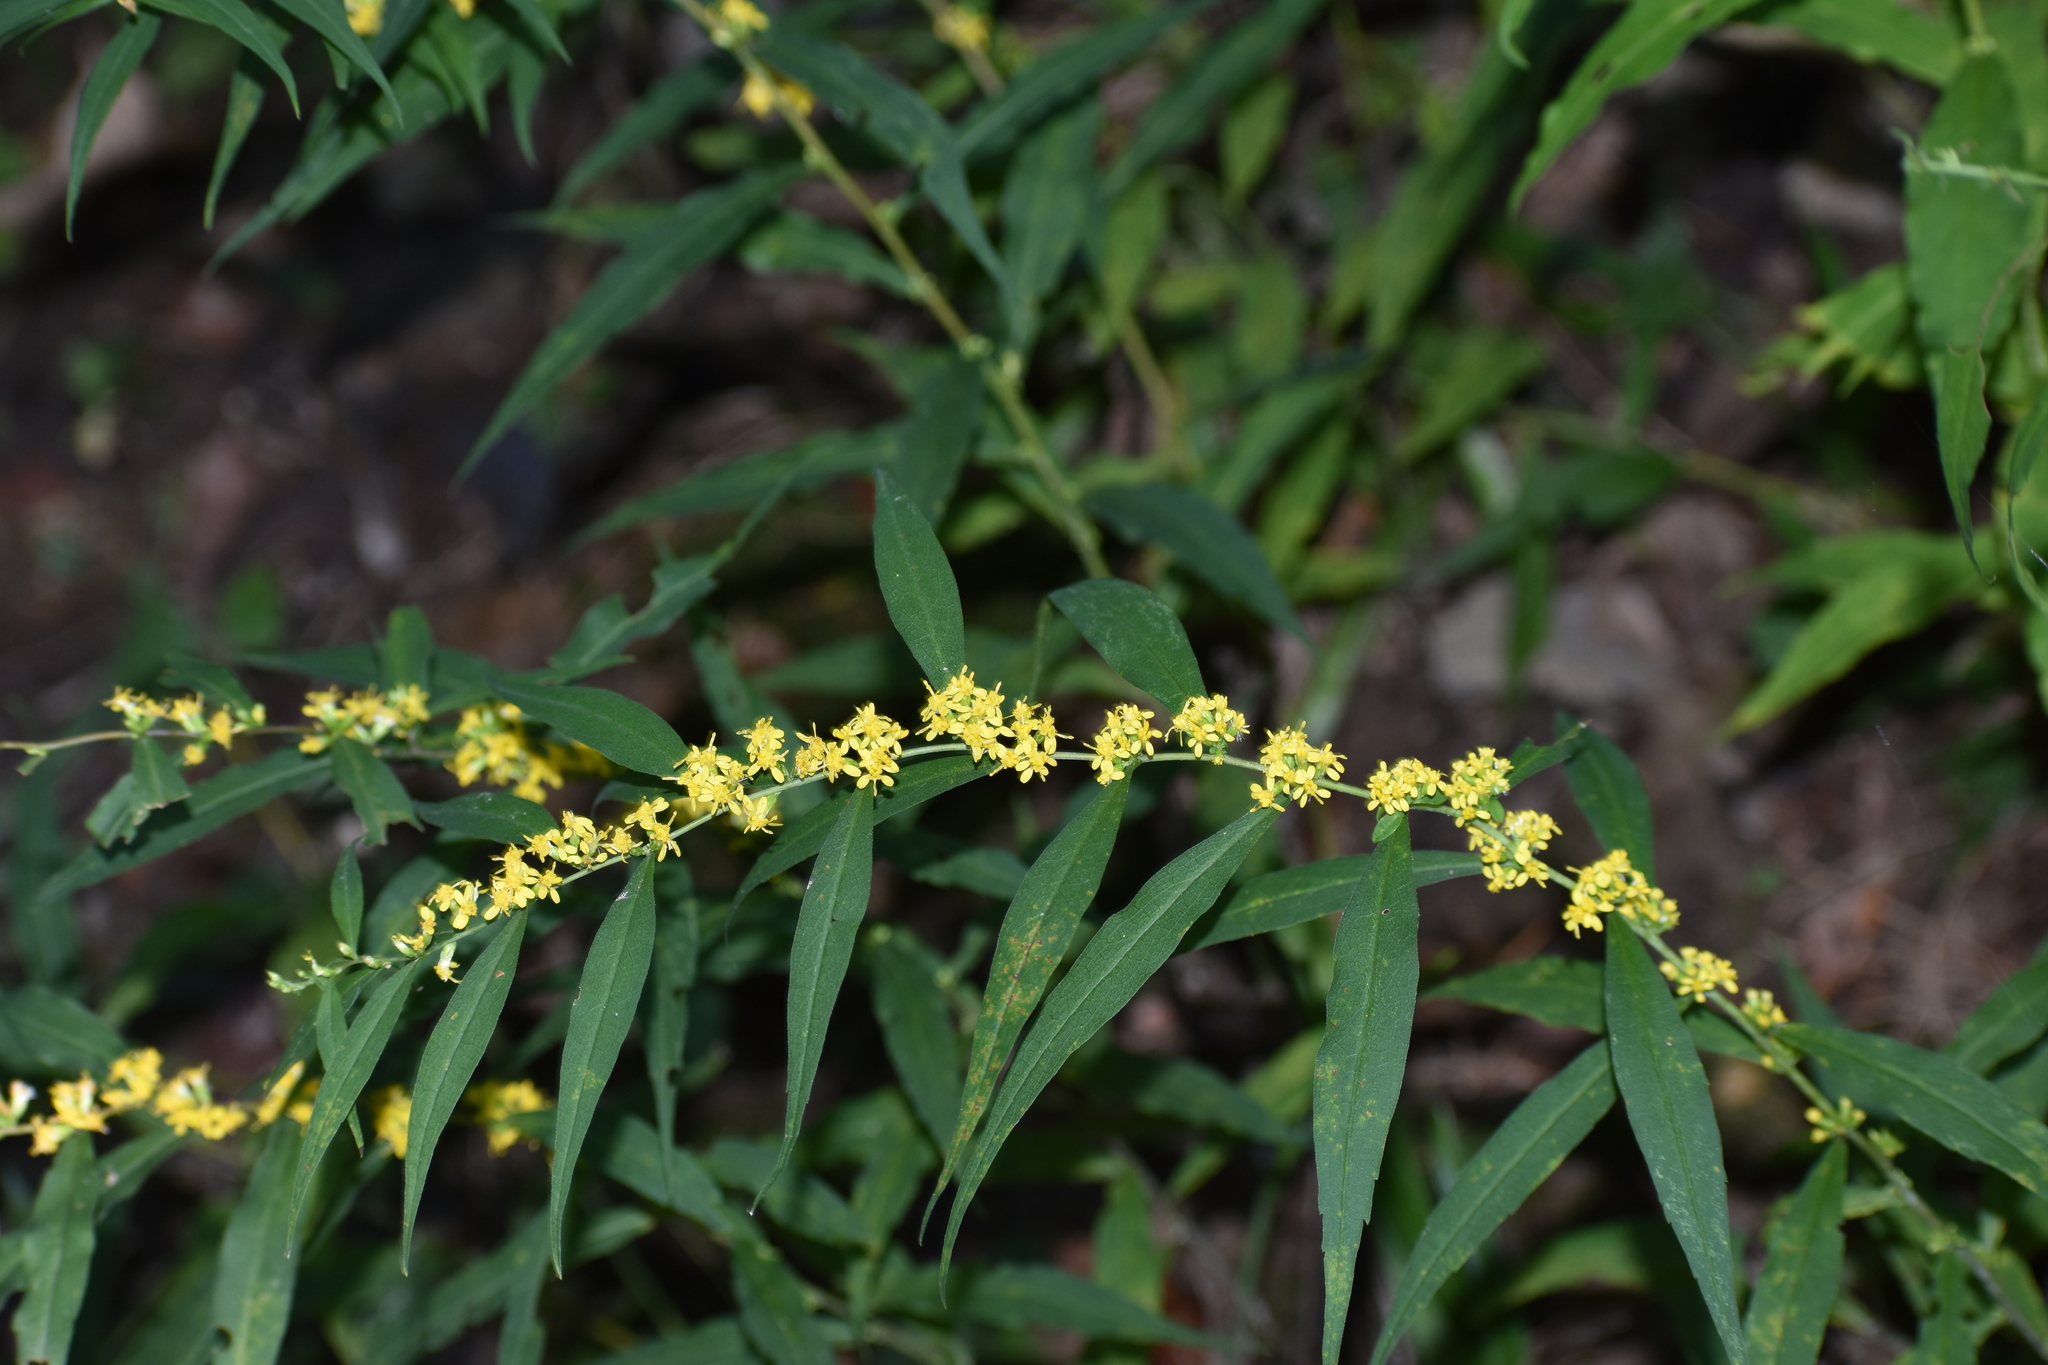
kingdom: Plantae
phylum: Tracheophyta
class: Magnoliopsida
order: Asterales
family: Asteraceae
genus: Solidago
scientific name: Solidago caesia
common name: Woodland goldenrod
